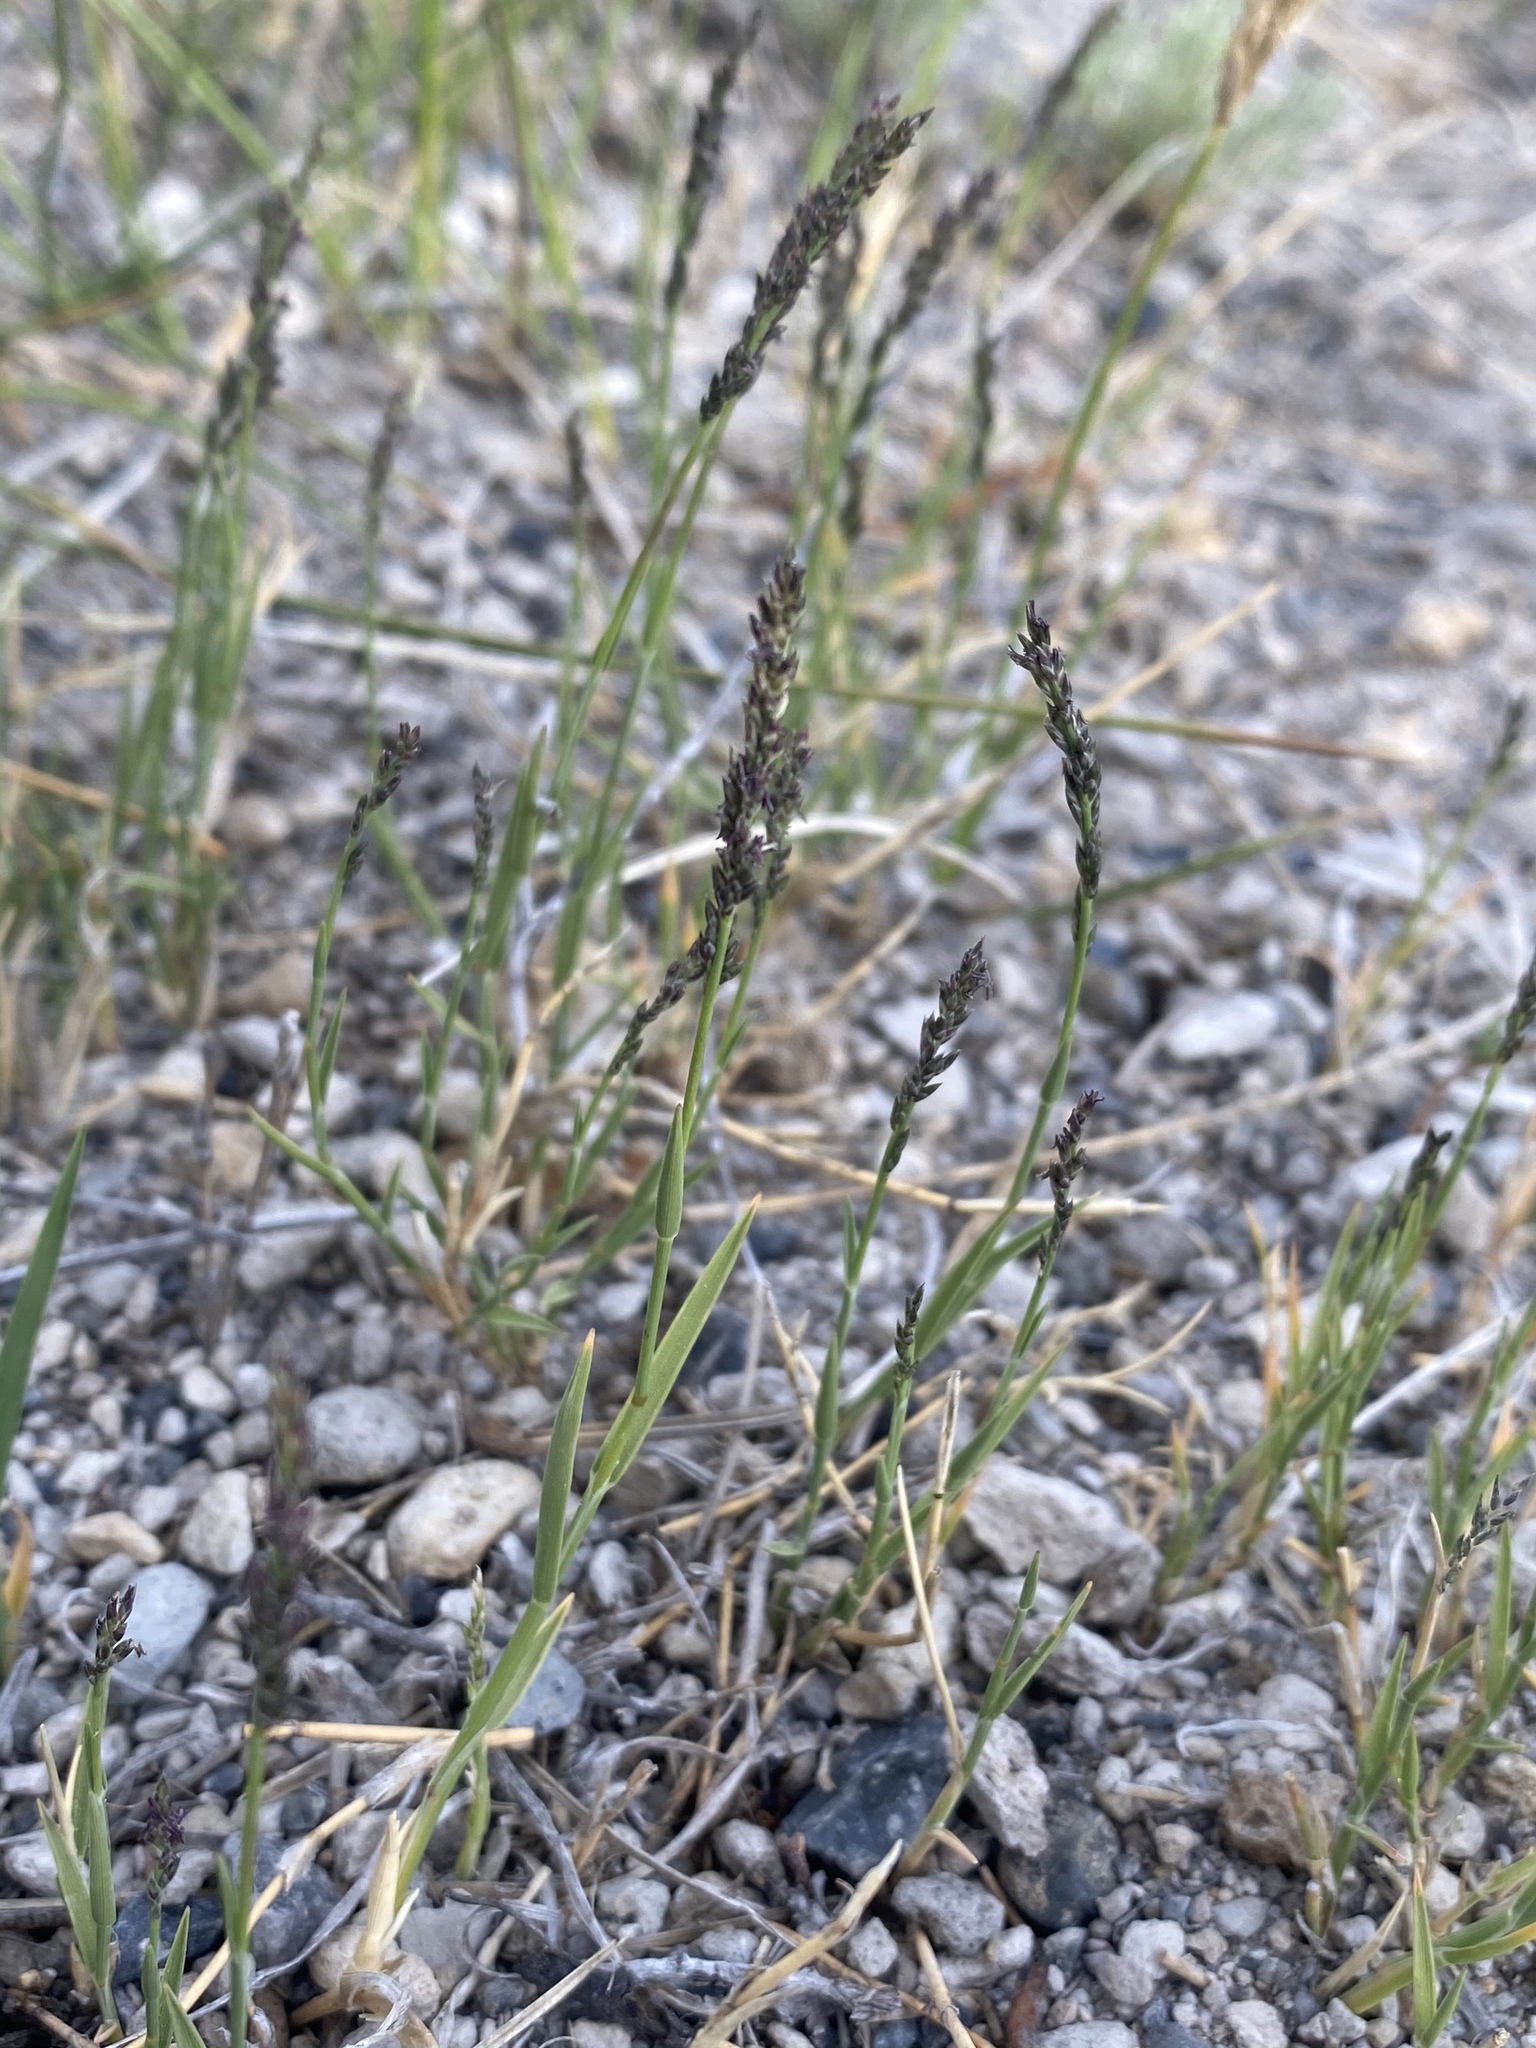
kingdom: Plantae
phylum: Tracheophyta
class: Liliopsida
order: Poales
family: Poaceae
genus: Muhlenbergia
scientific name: Muhlenbergia richardsonis
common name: Mat muhly
